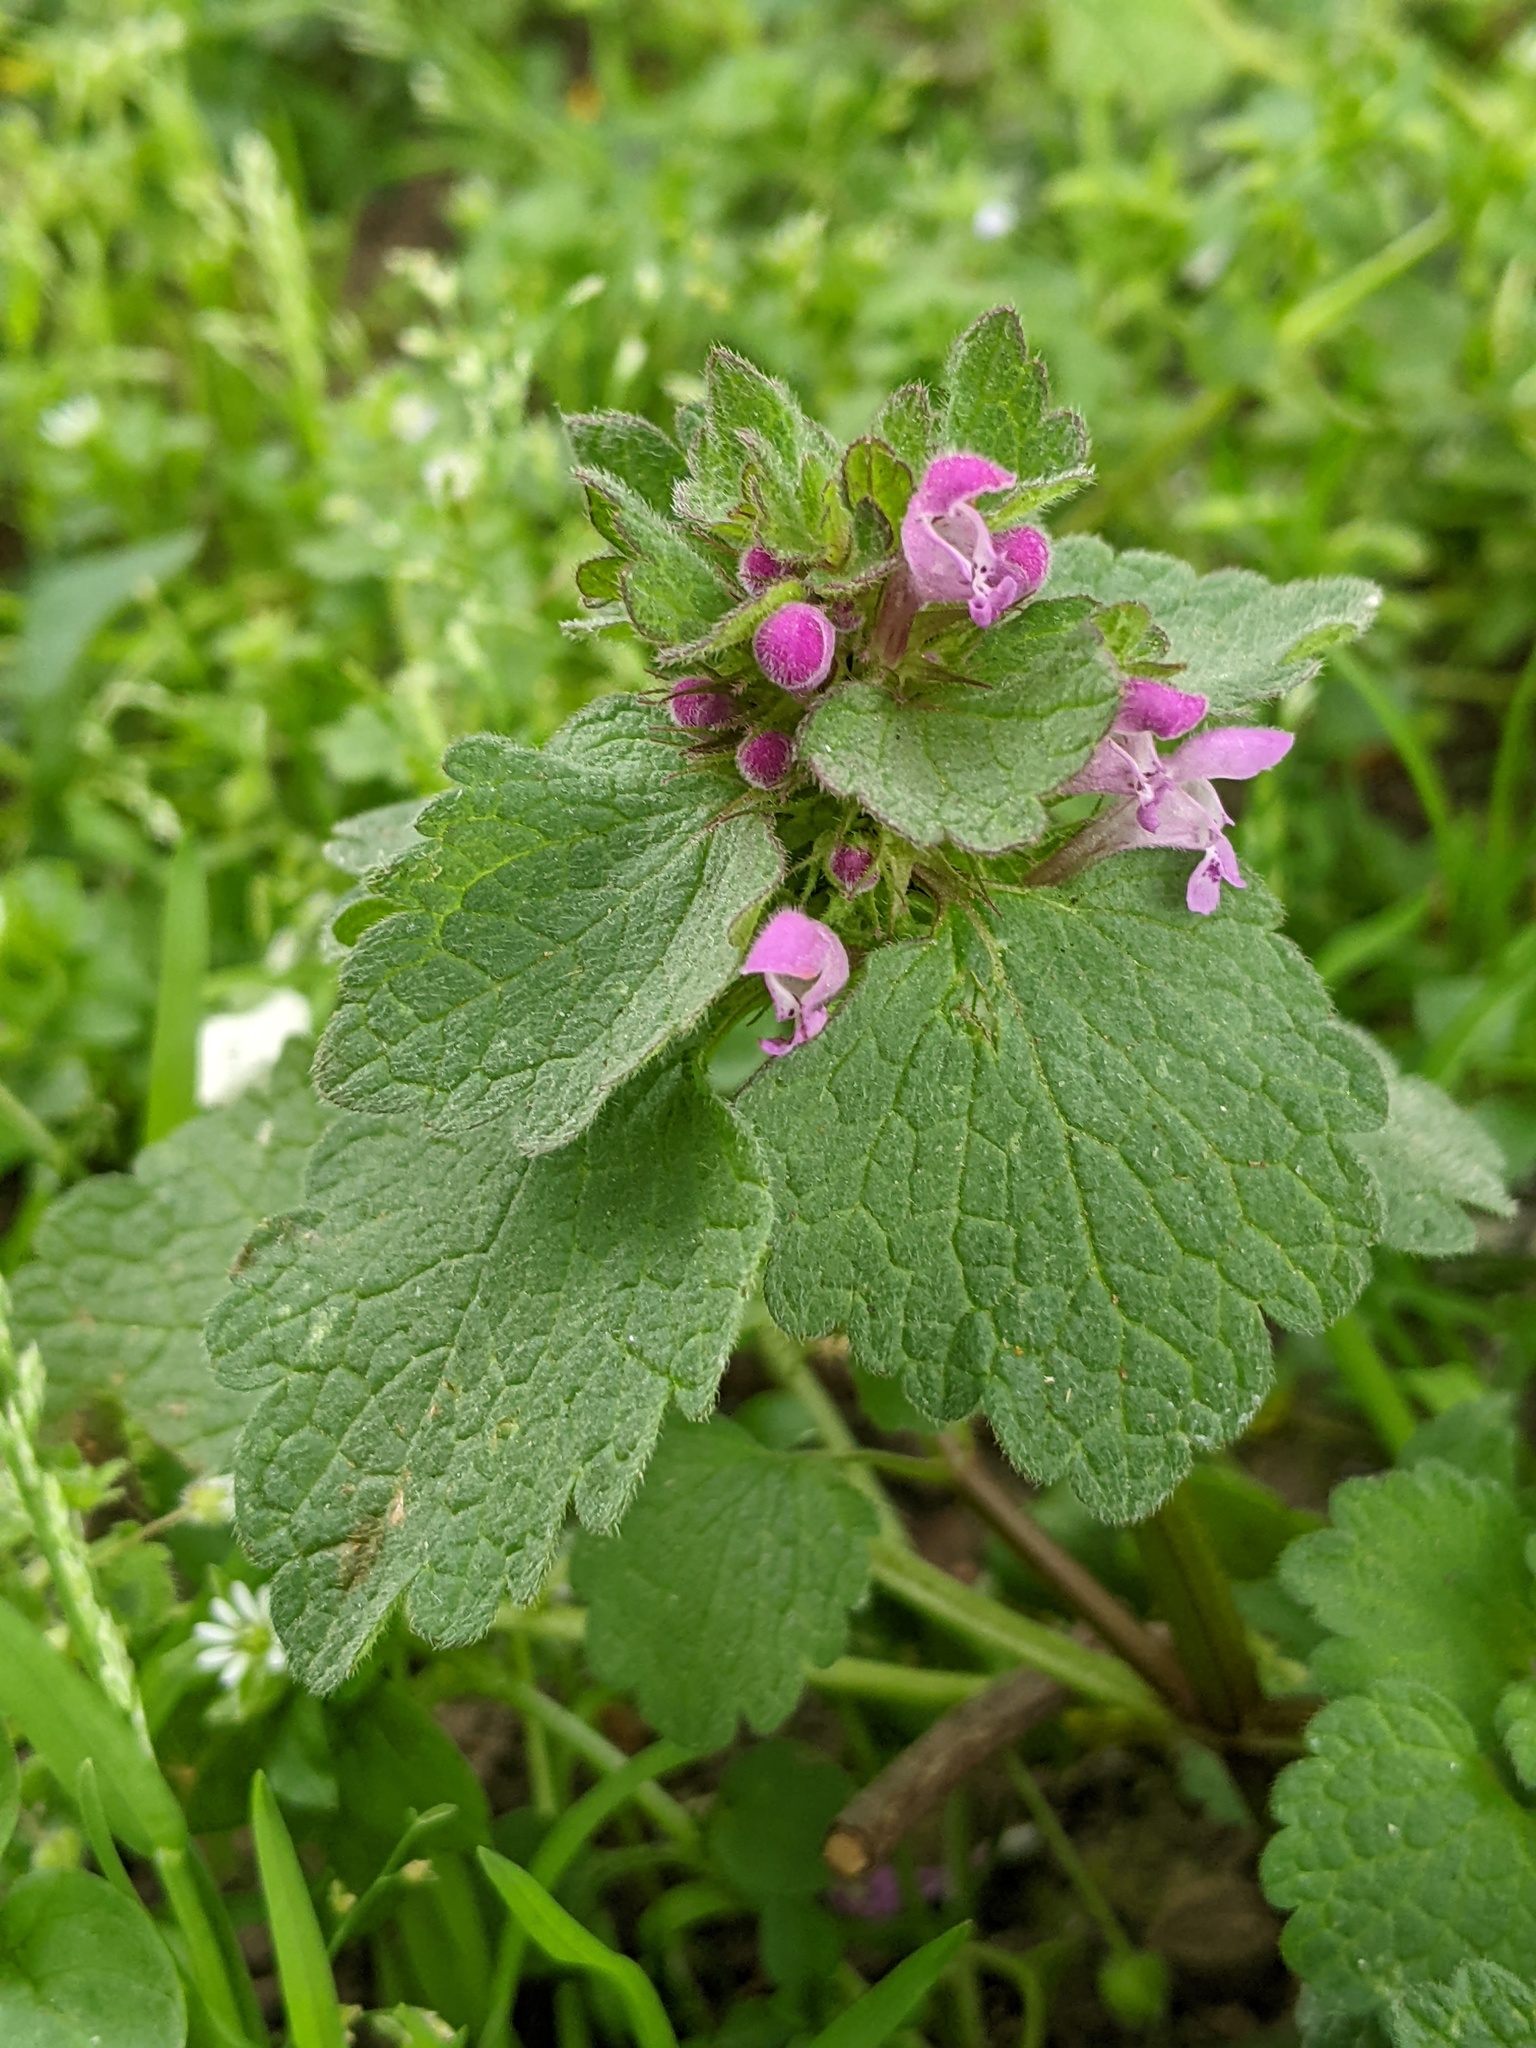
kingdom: Plantae
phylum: Tracheophyta
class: Magnoliopsida
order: Lamiales
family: Lamiaceae
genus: Lamium
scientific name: Lamium purpureum
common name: Red dead-nettle
